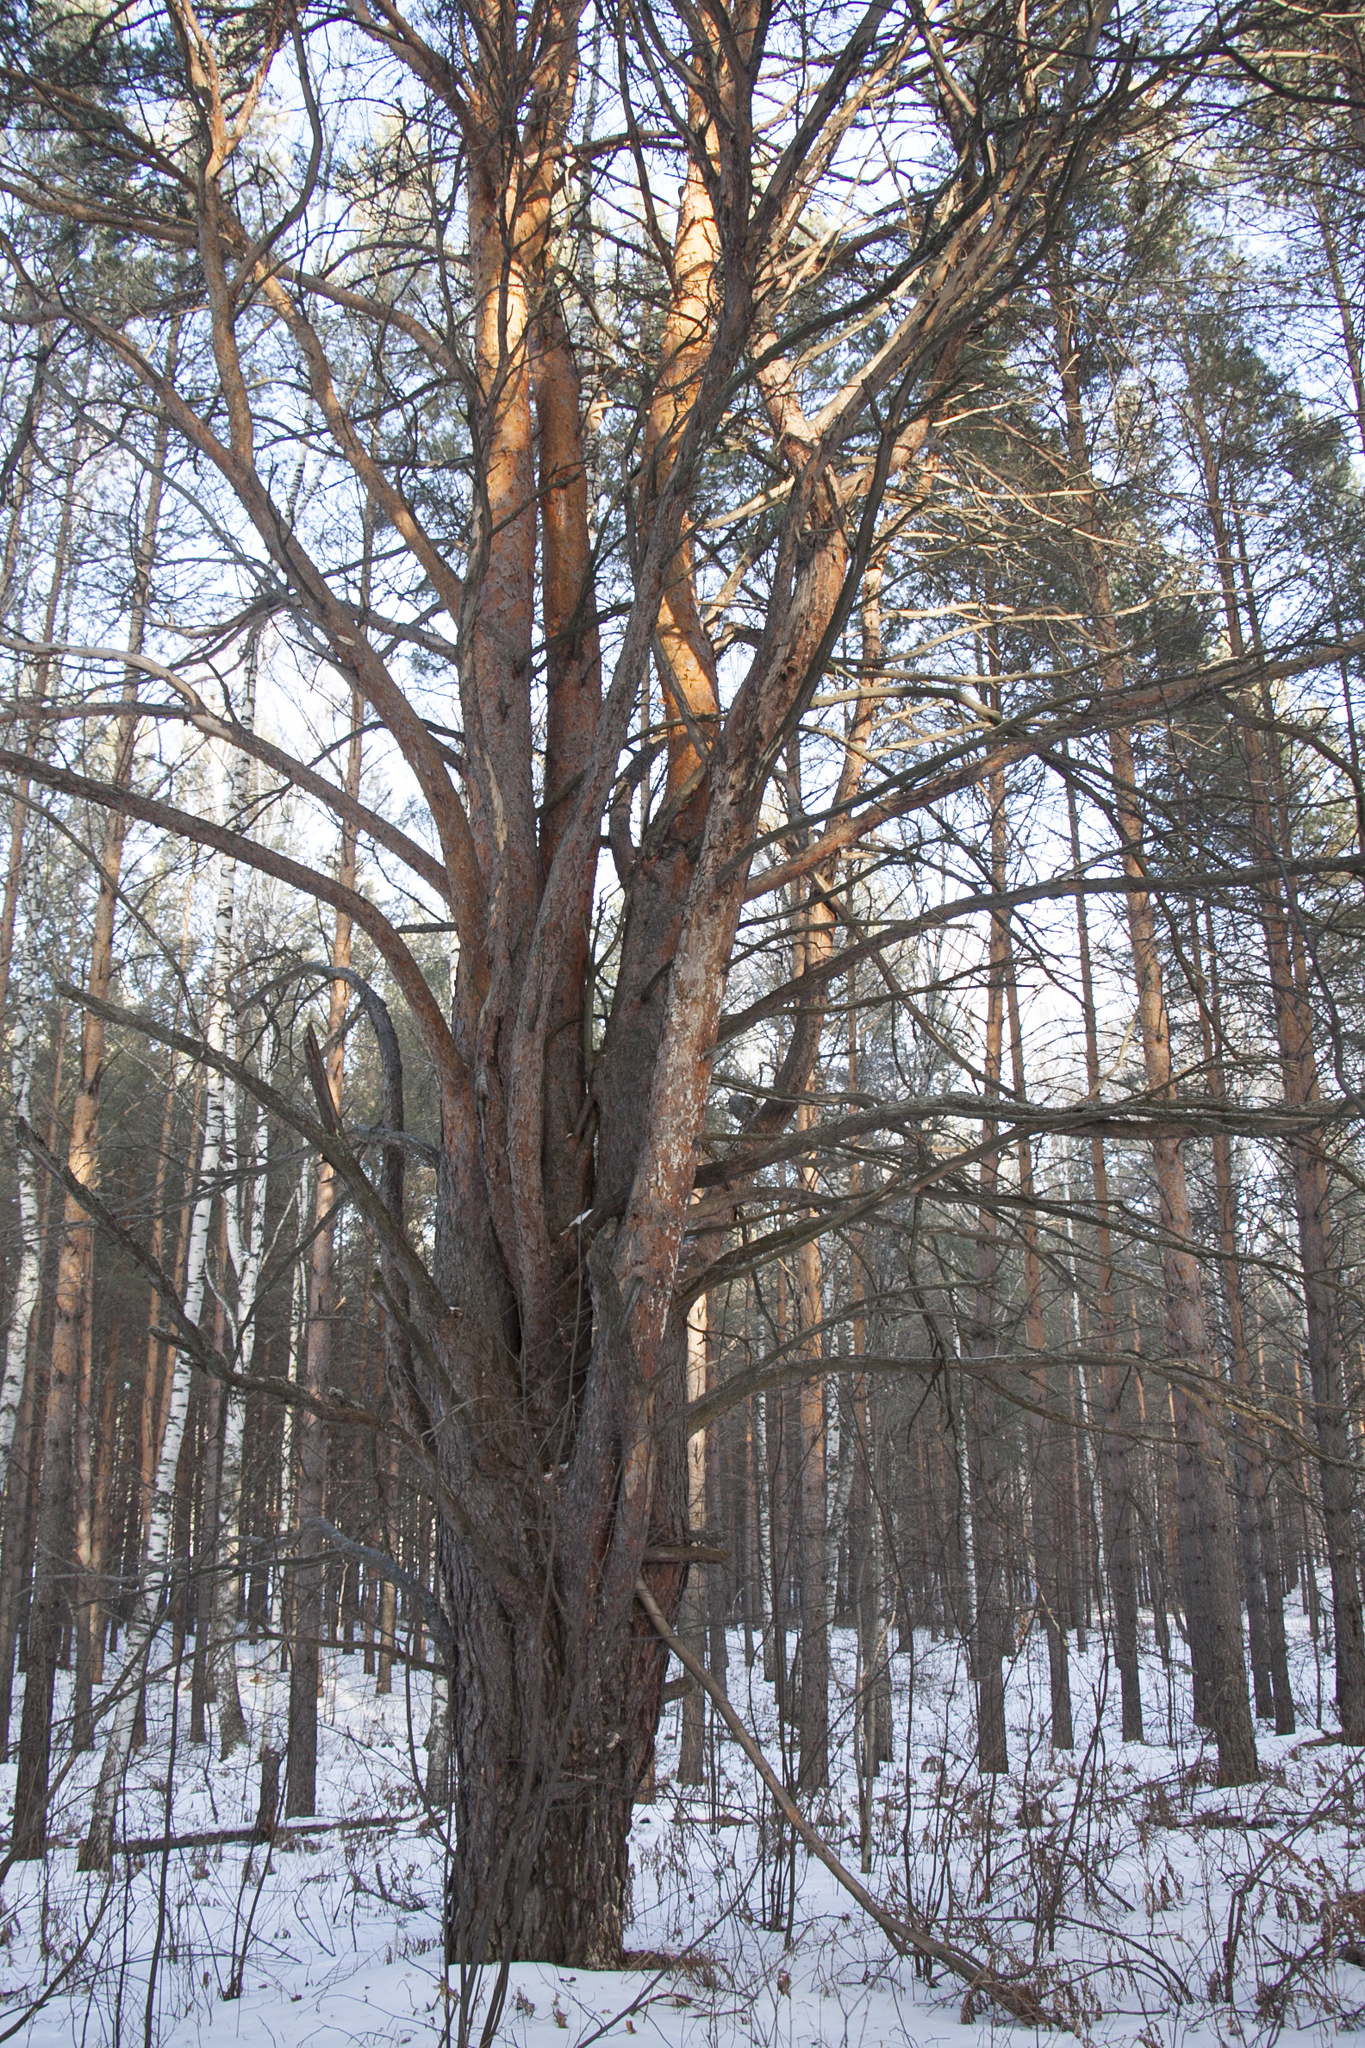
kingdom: Plantae
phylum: Tracheophyta
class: Pinopsida
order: Pinales
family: Pinaceae
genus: Pinus
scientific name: Pinus sylvestris
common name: Scots pine
